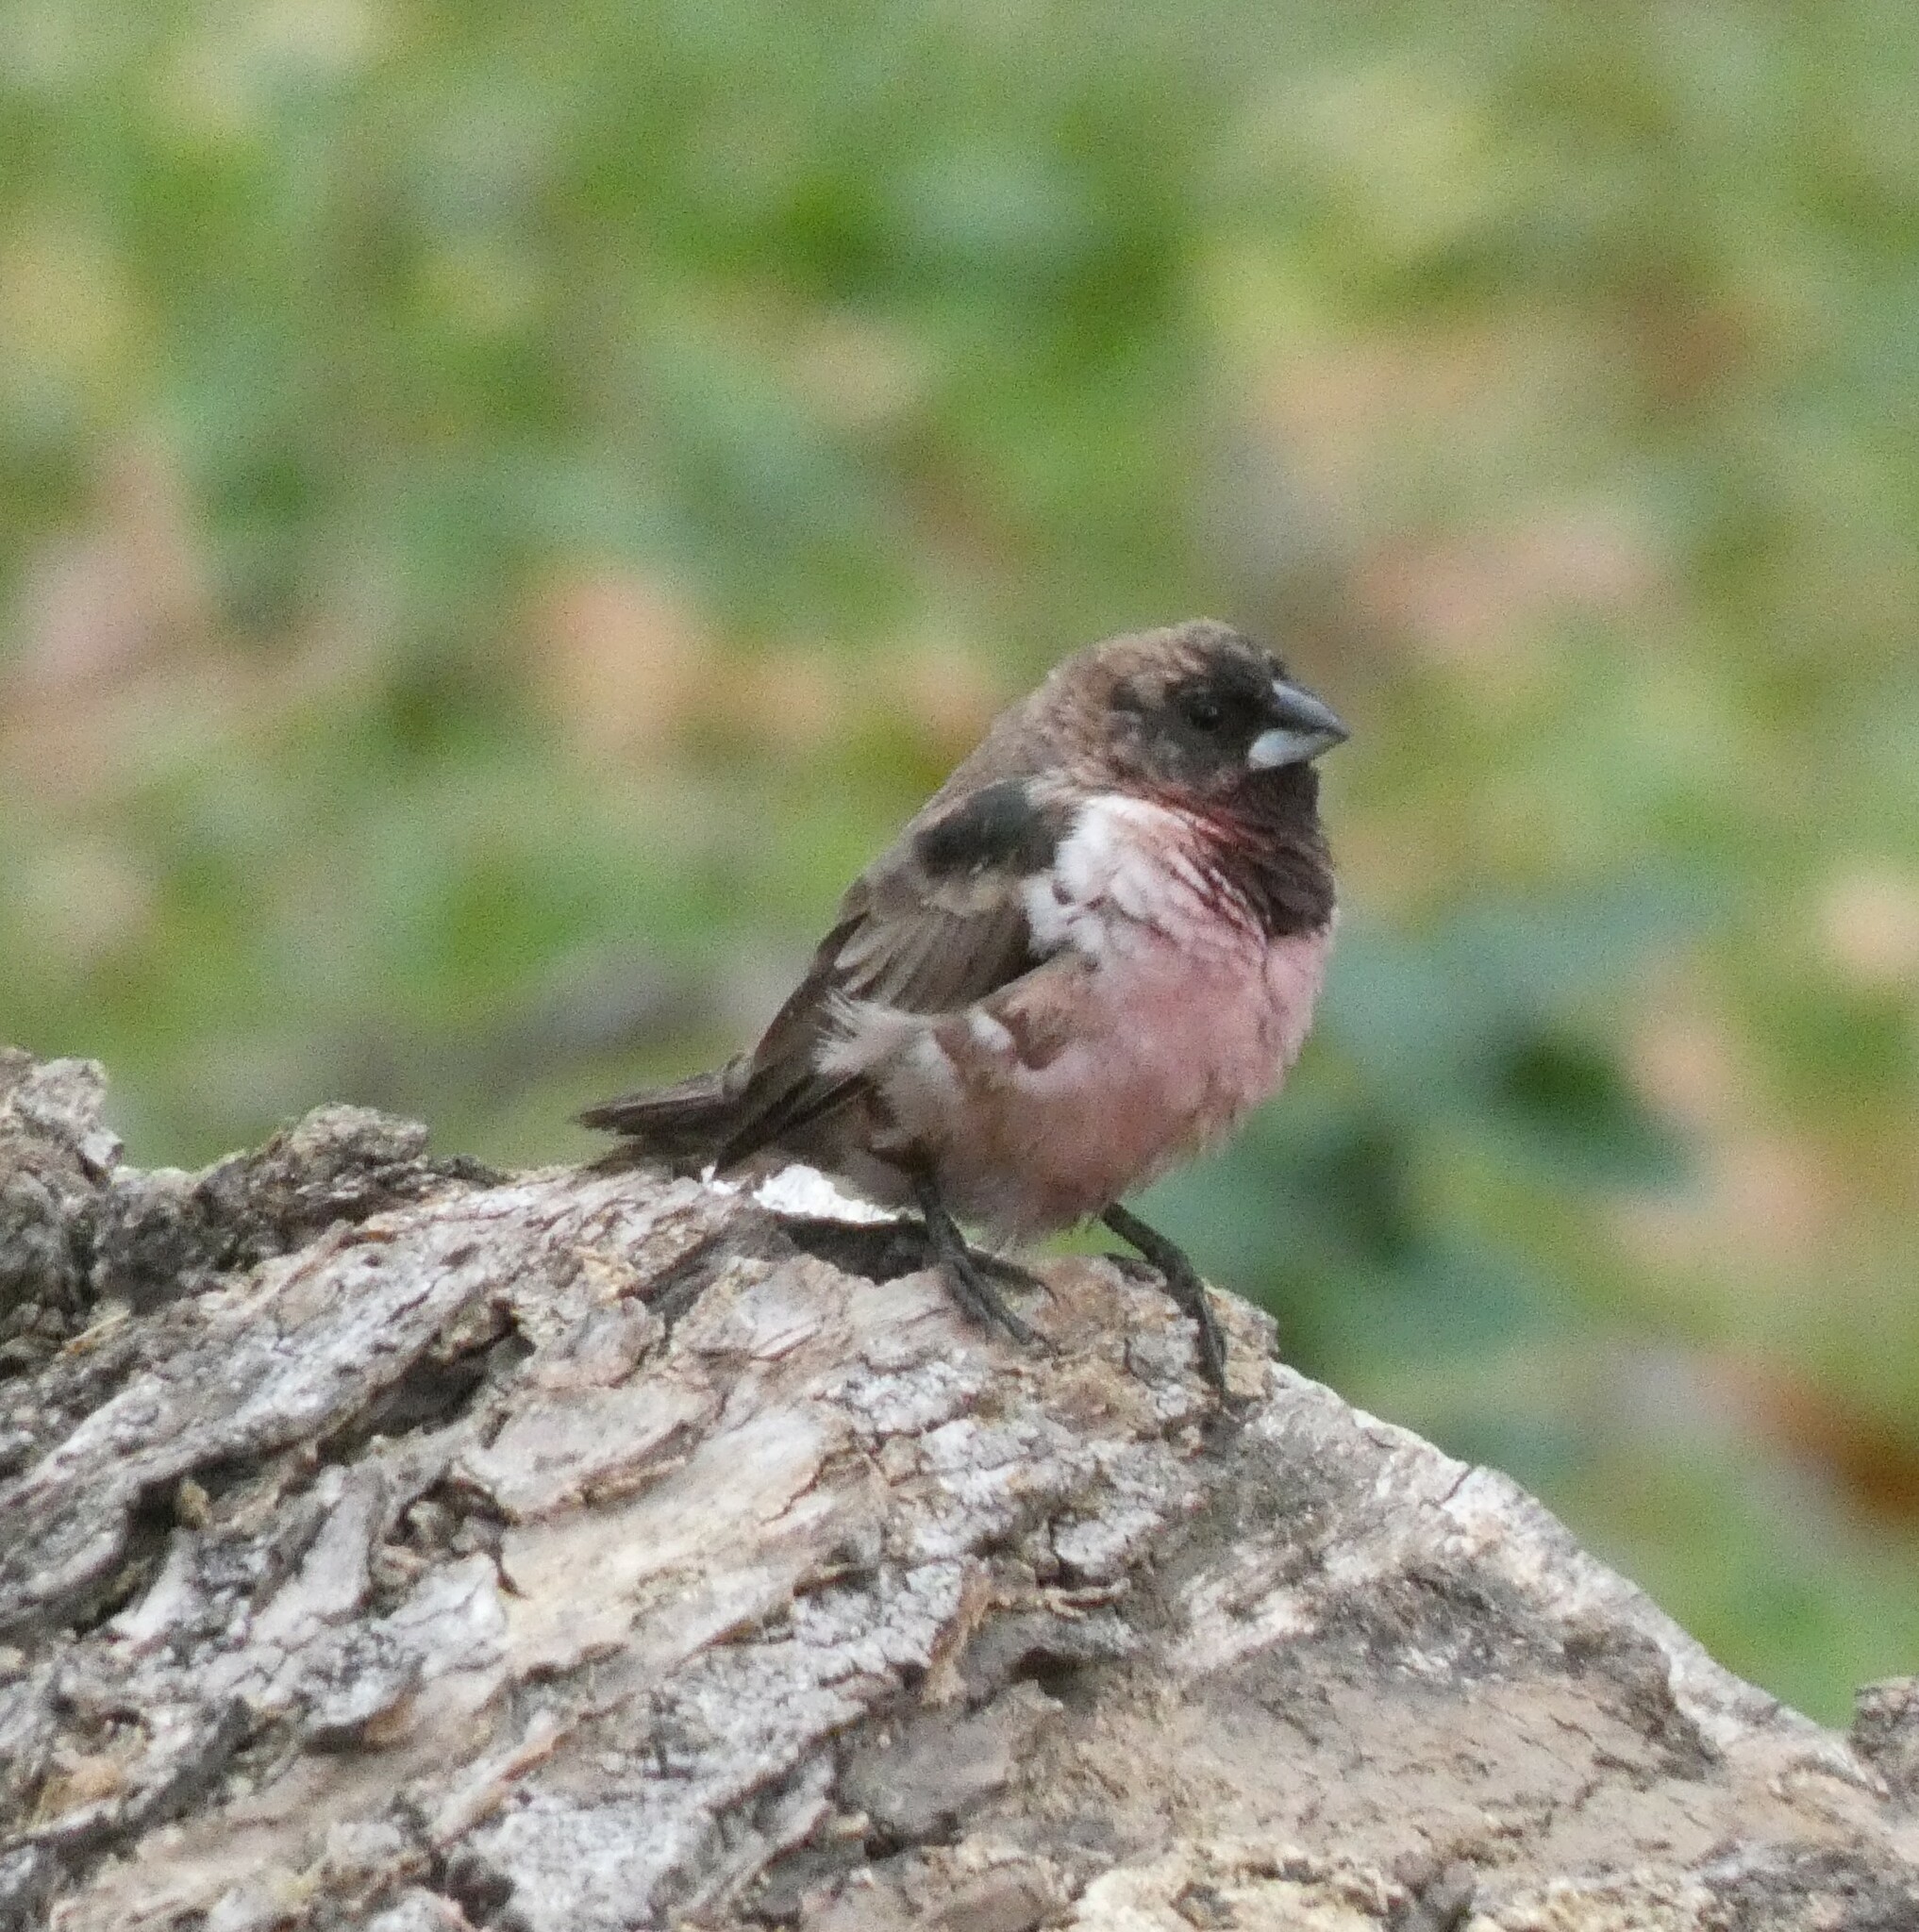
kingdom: Animalia
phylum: Chordata
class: Aves
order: Passeriformes
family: Estrildidae
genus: Lonchura
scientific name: Lonchura cucullata
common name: Bronze mannikin
